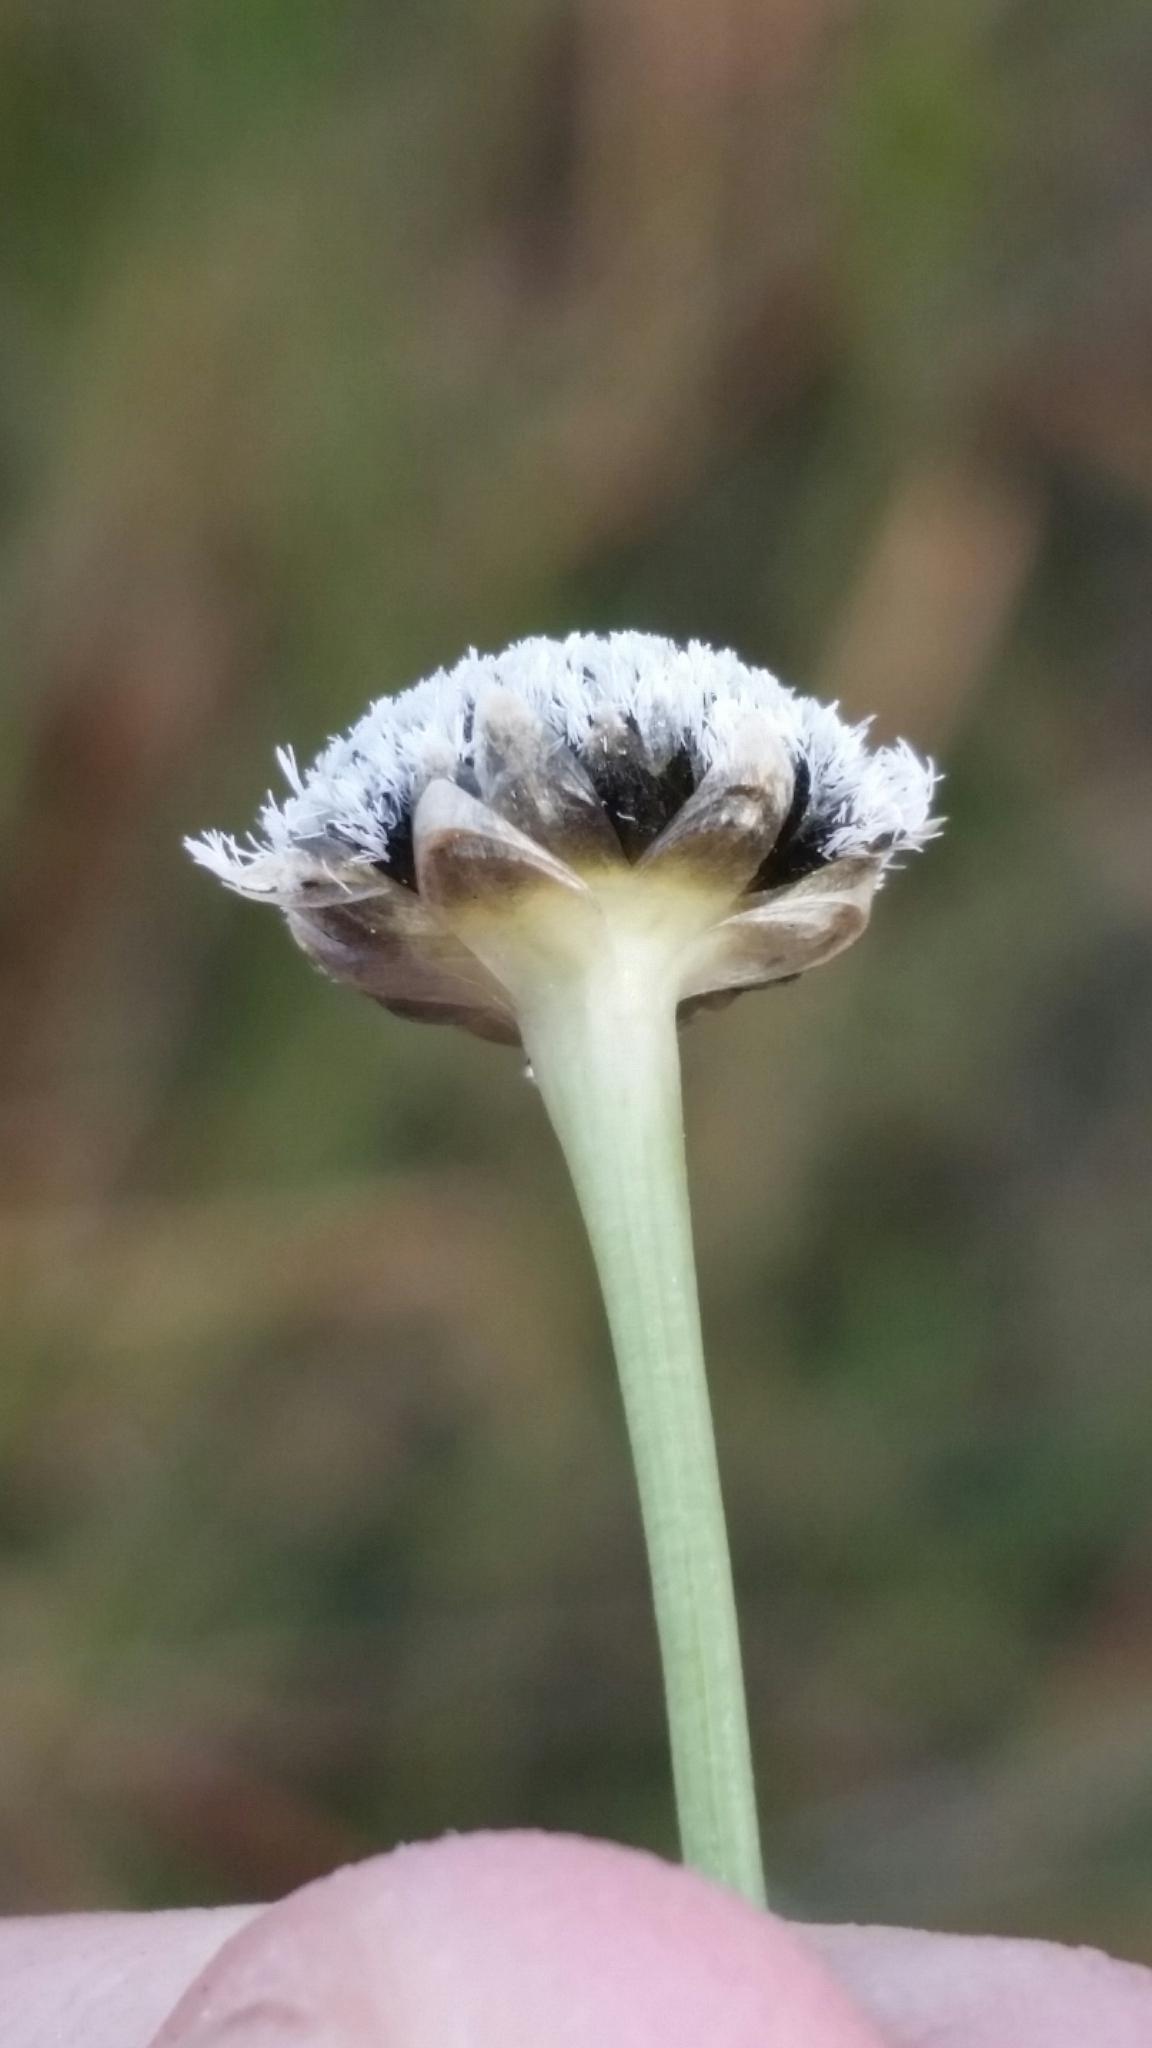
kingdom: Plantae
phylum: Tracheophyta
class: Liliopsida
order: Poales
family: Eriocaulaceae
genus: Eriocaulon
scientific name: Eriocaulon compressum
